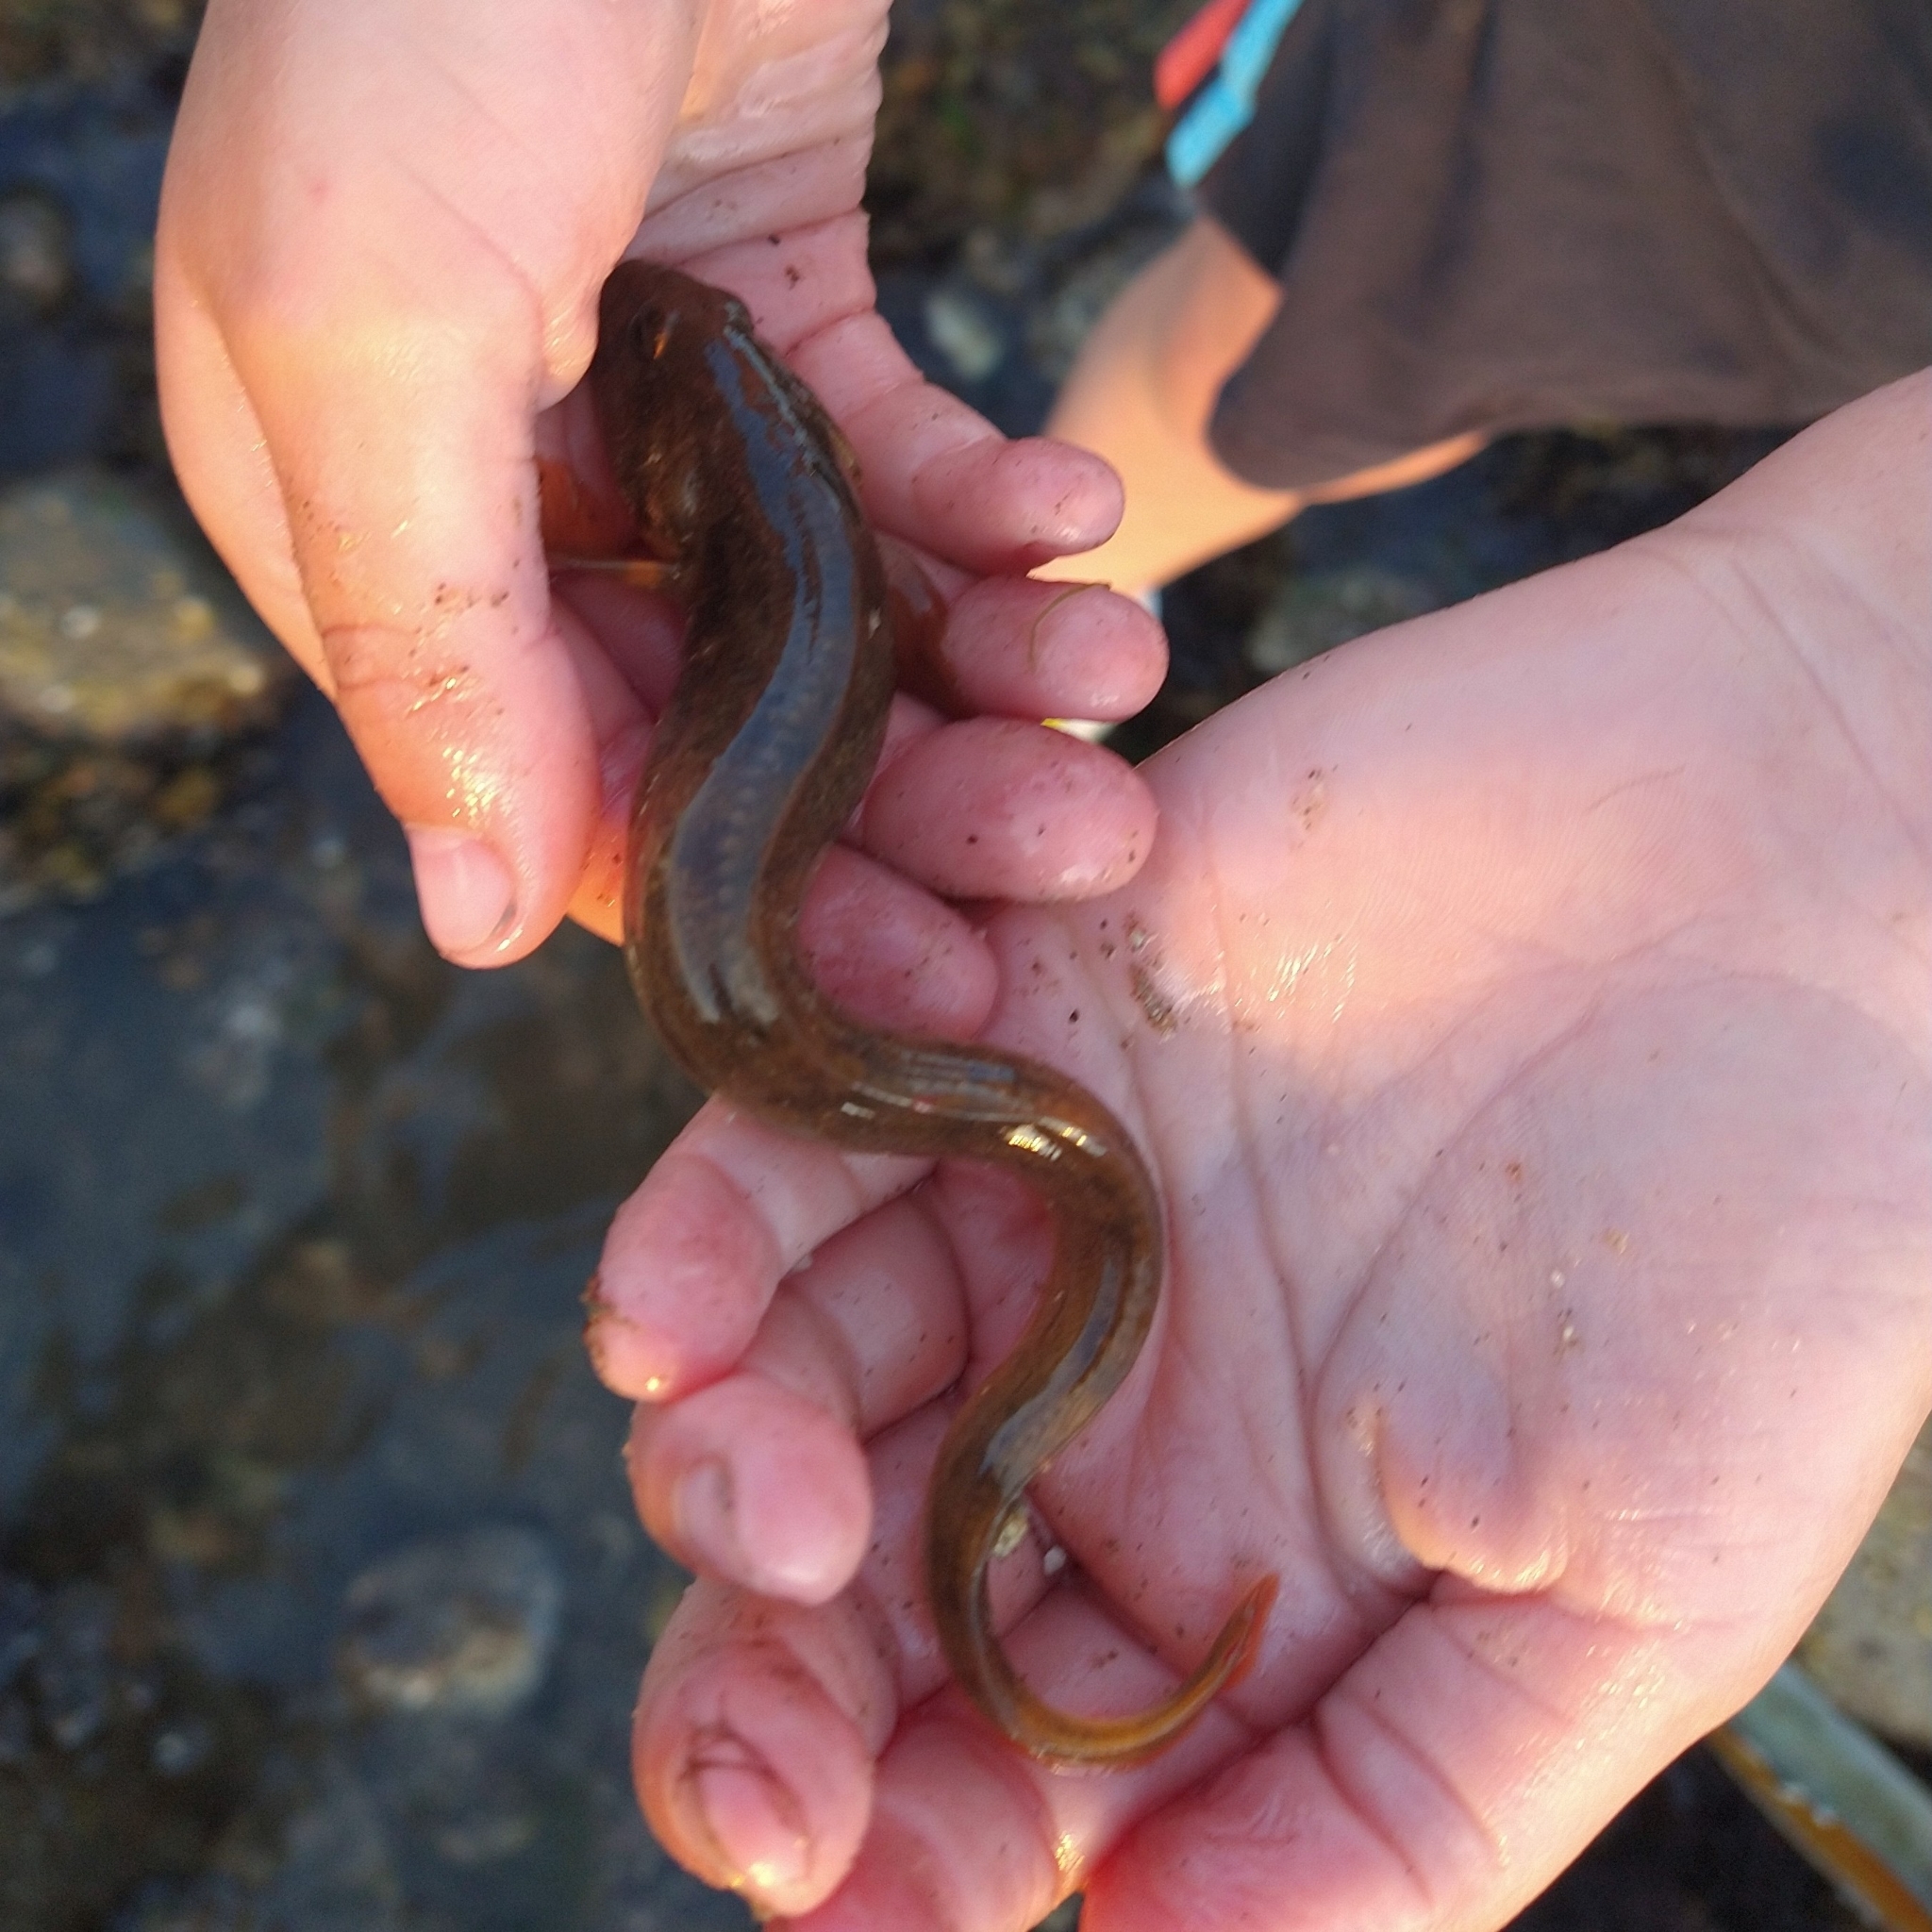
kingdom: Animalia
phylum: Chordata
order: Perciformes
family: Zoarcidae
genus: Zoarces
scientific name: Zoarces viviparus
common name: Viviparous blenny
